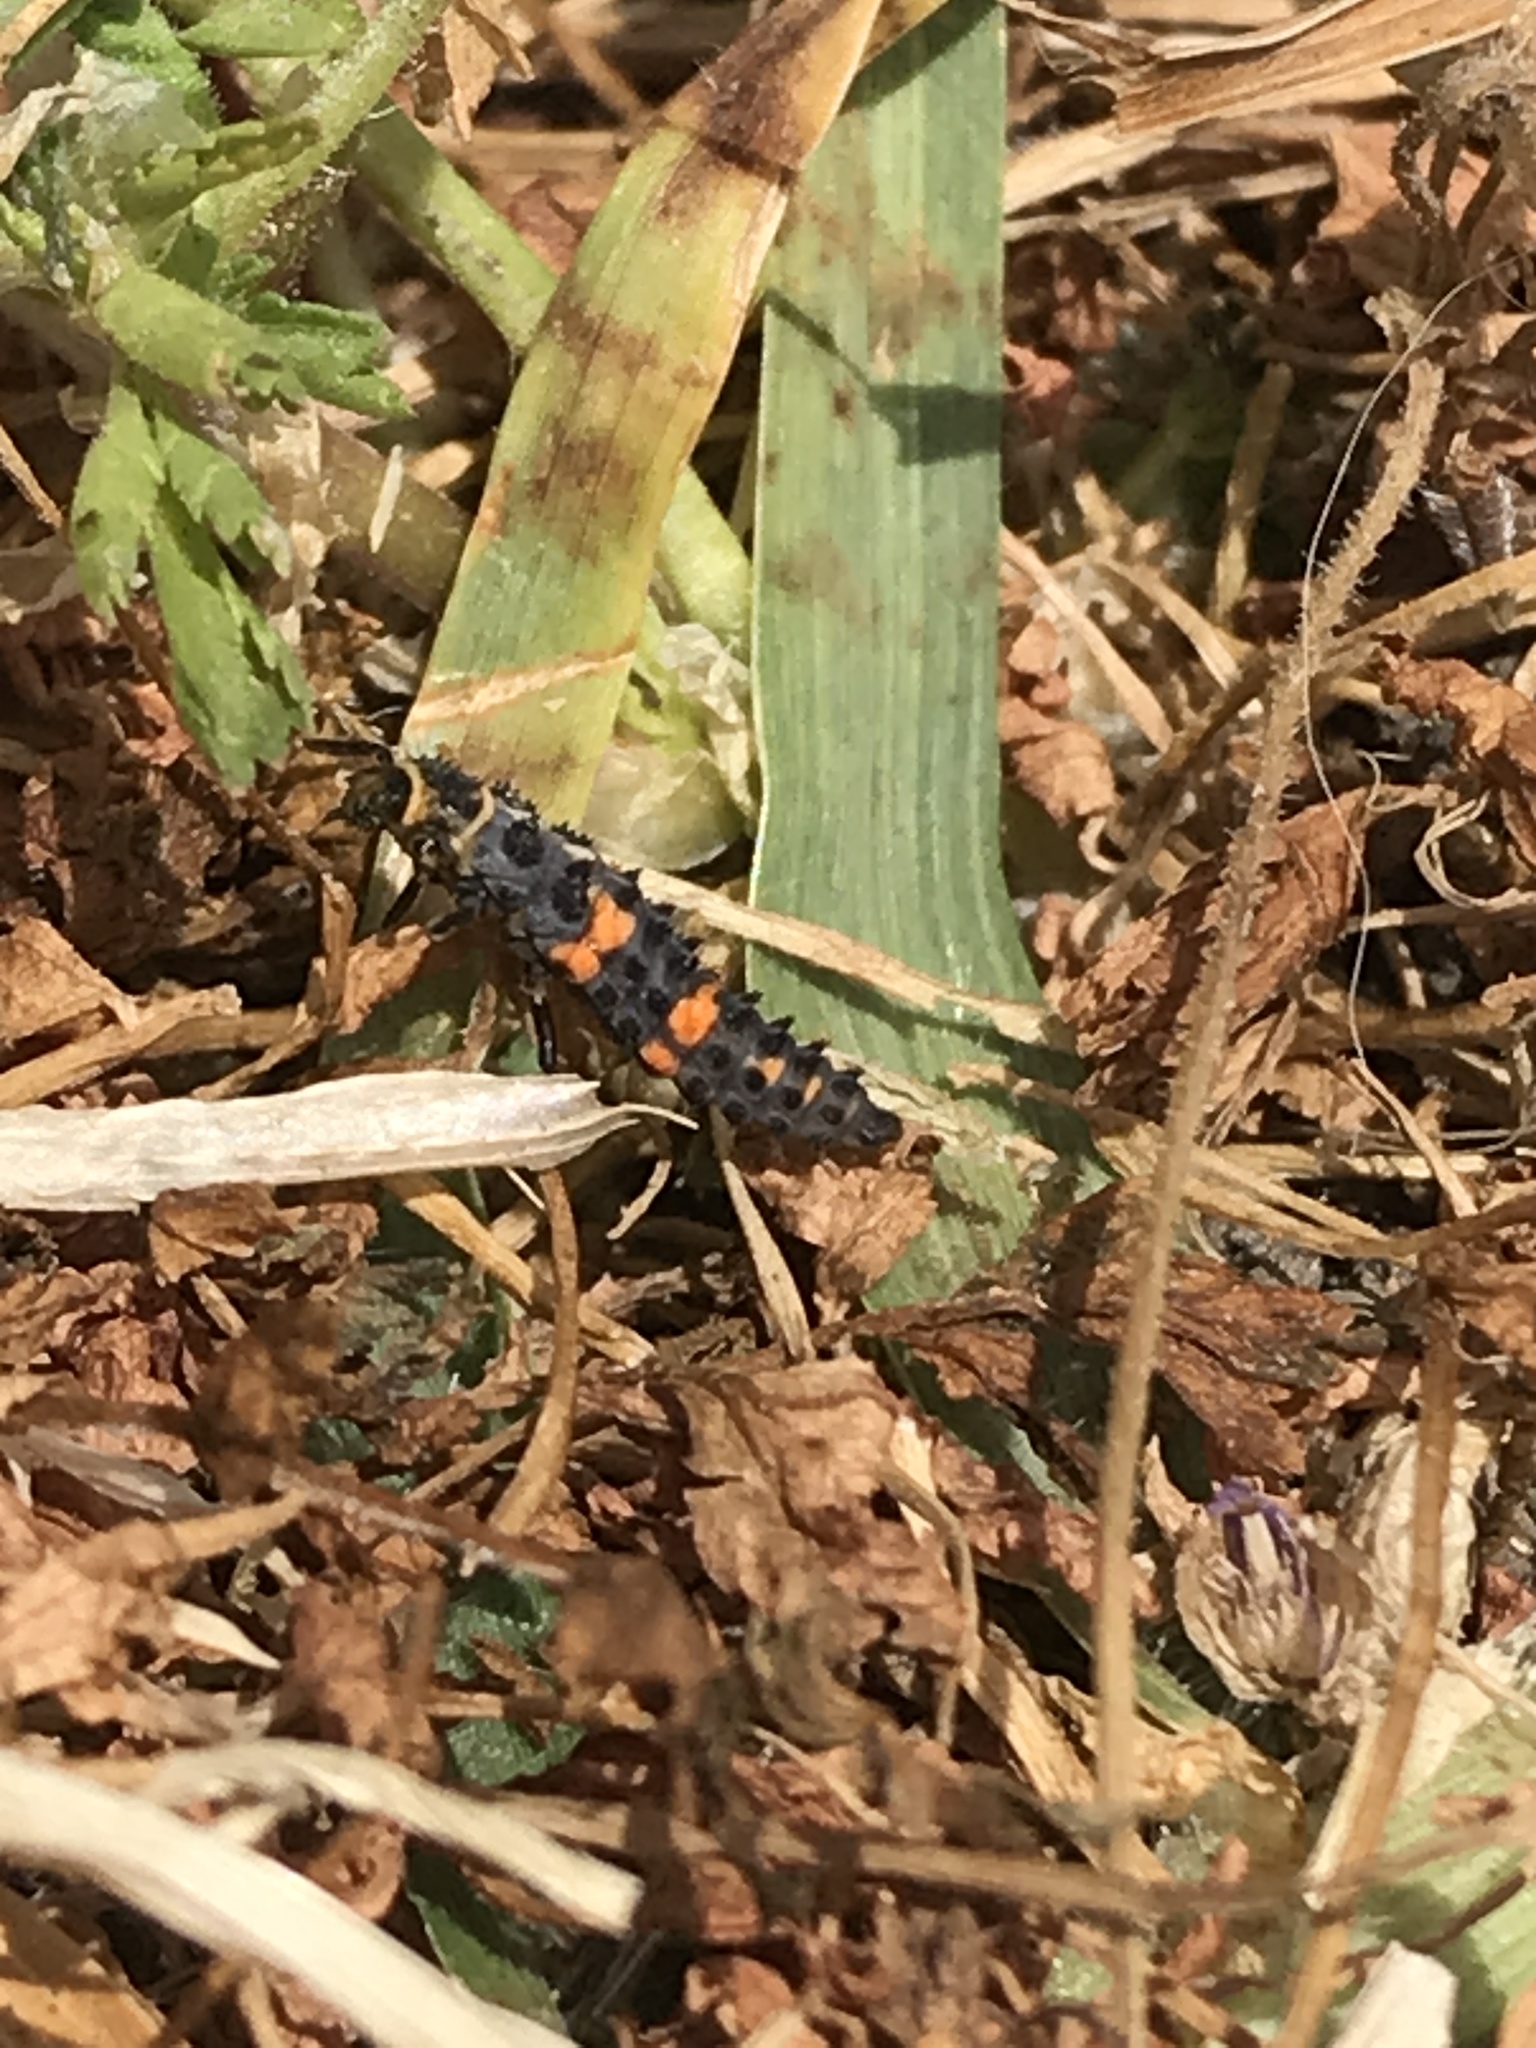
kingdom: Animalia
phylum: Arthropoda
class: Insecta
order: Coleoptera
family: Coccinellidae
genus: Hippodamia
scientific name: Hippodamia convergens
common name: Convergent lady beetle
